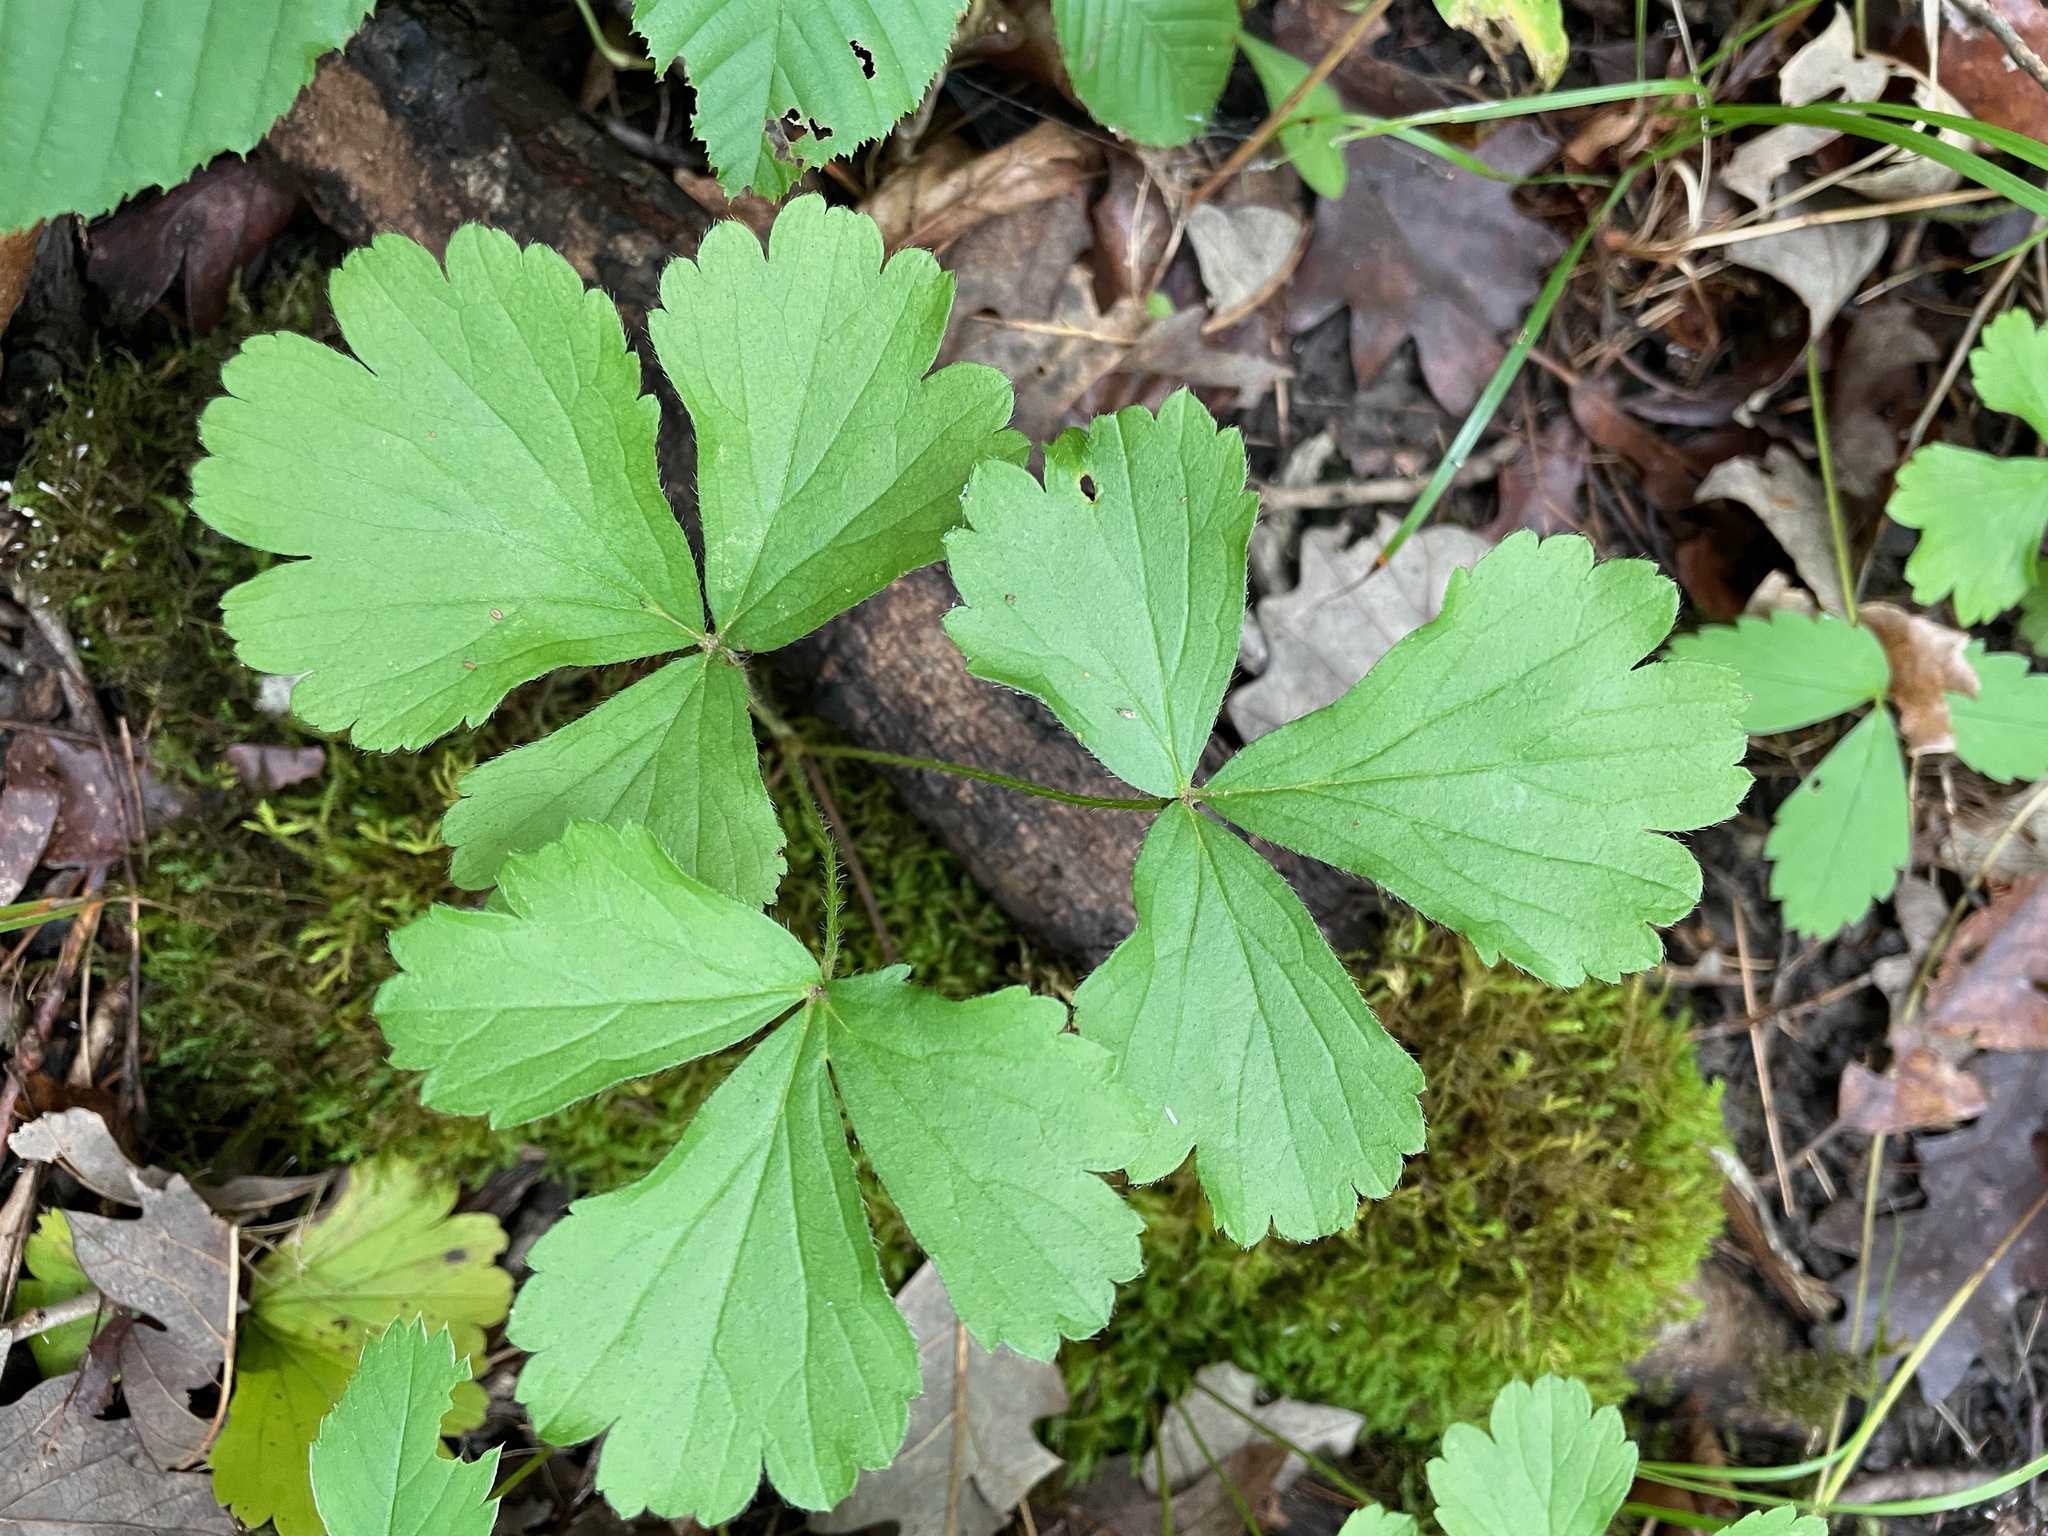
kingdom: Plantae
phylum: Tracheophyta
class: Magnoliopsida
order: Rosales
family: Rosaceae
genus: Geum
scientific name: Geum fragarioides
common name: Appalachian barren strawberry
